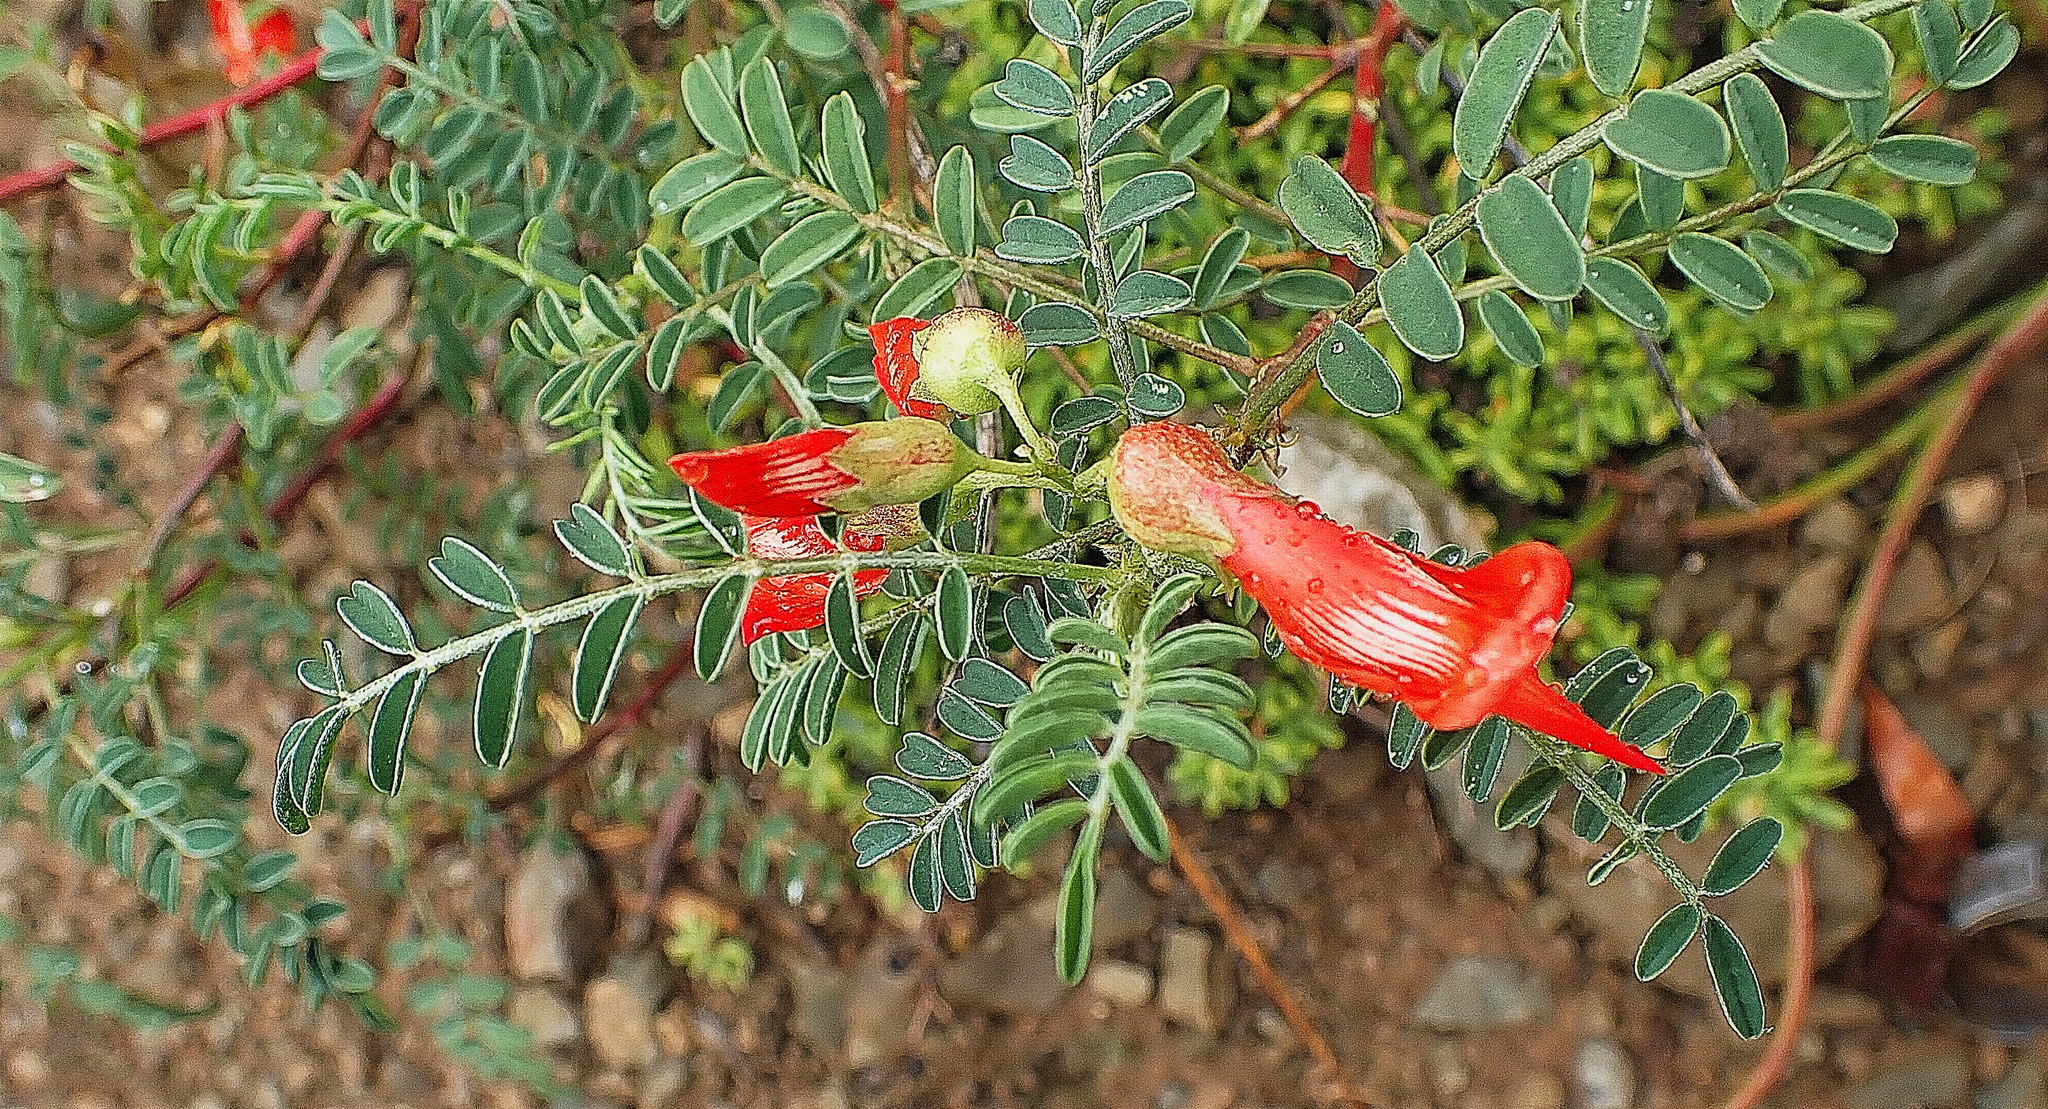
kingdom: Plantae
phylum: Tracheophyta
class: Magnoliopsida
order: Fabales
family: Fabaceae
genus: Lessertia
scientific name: Lessertia frutescens
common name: Balloon-pea
